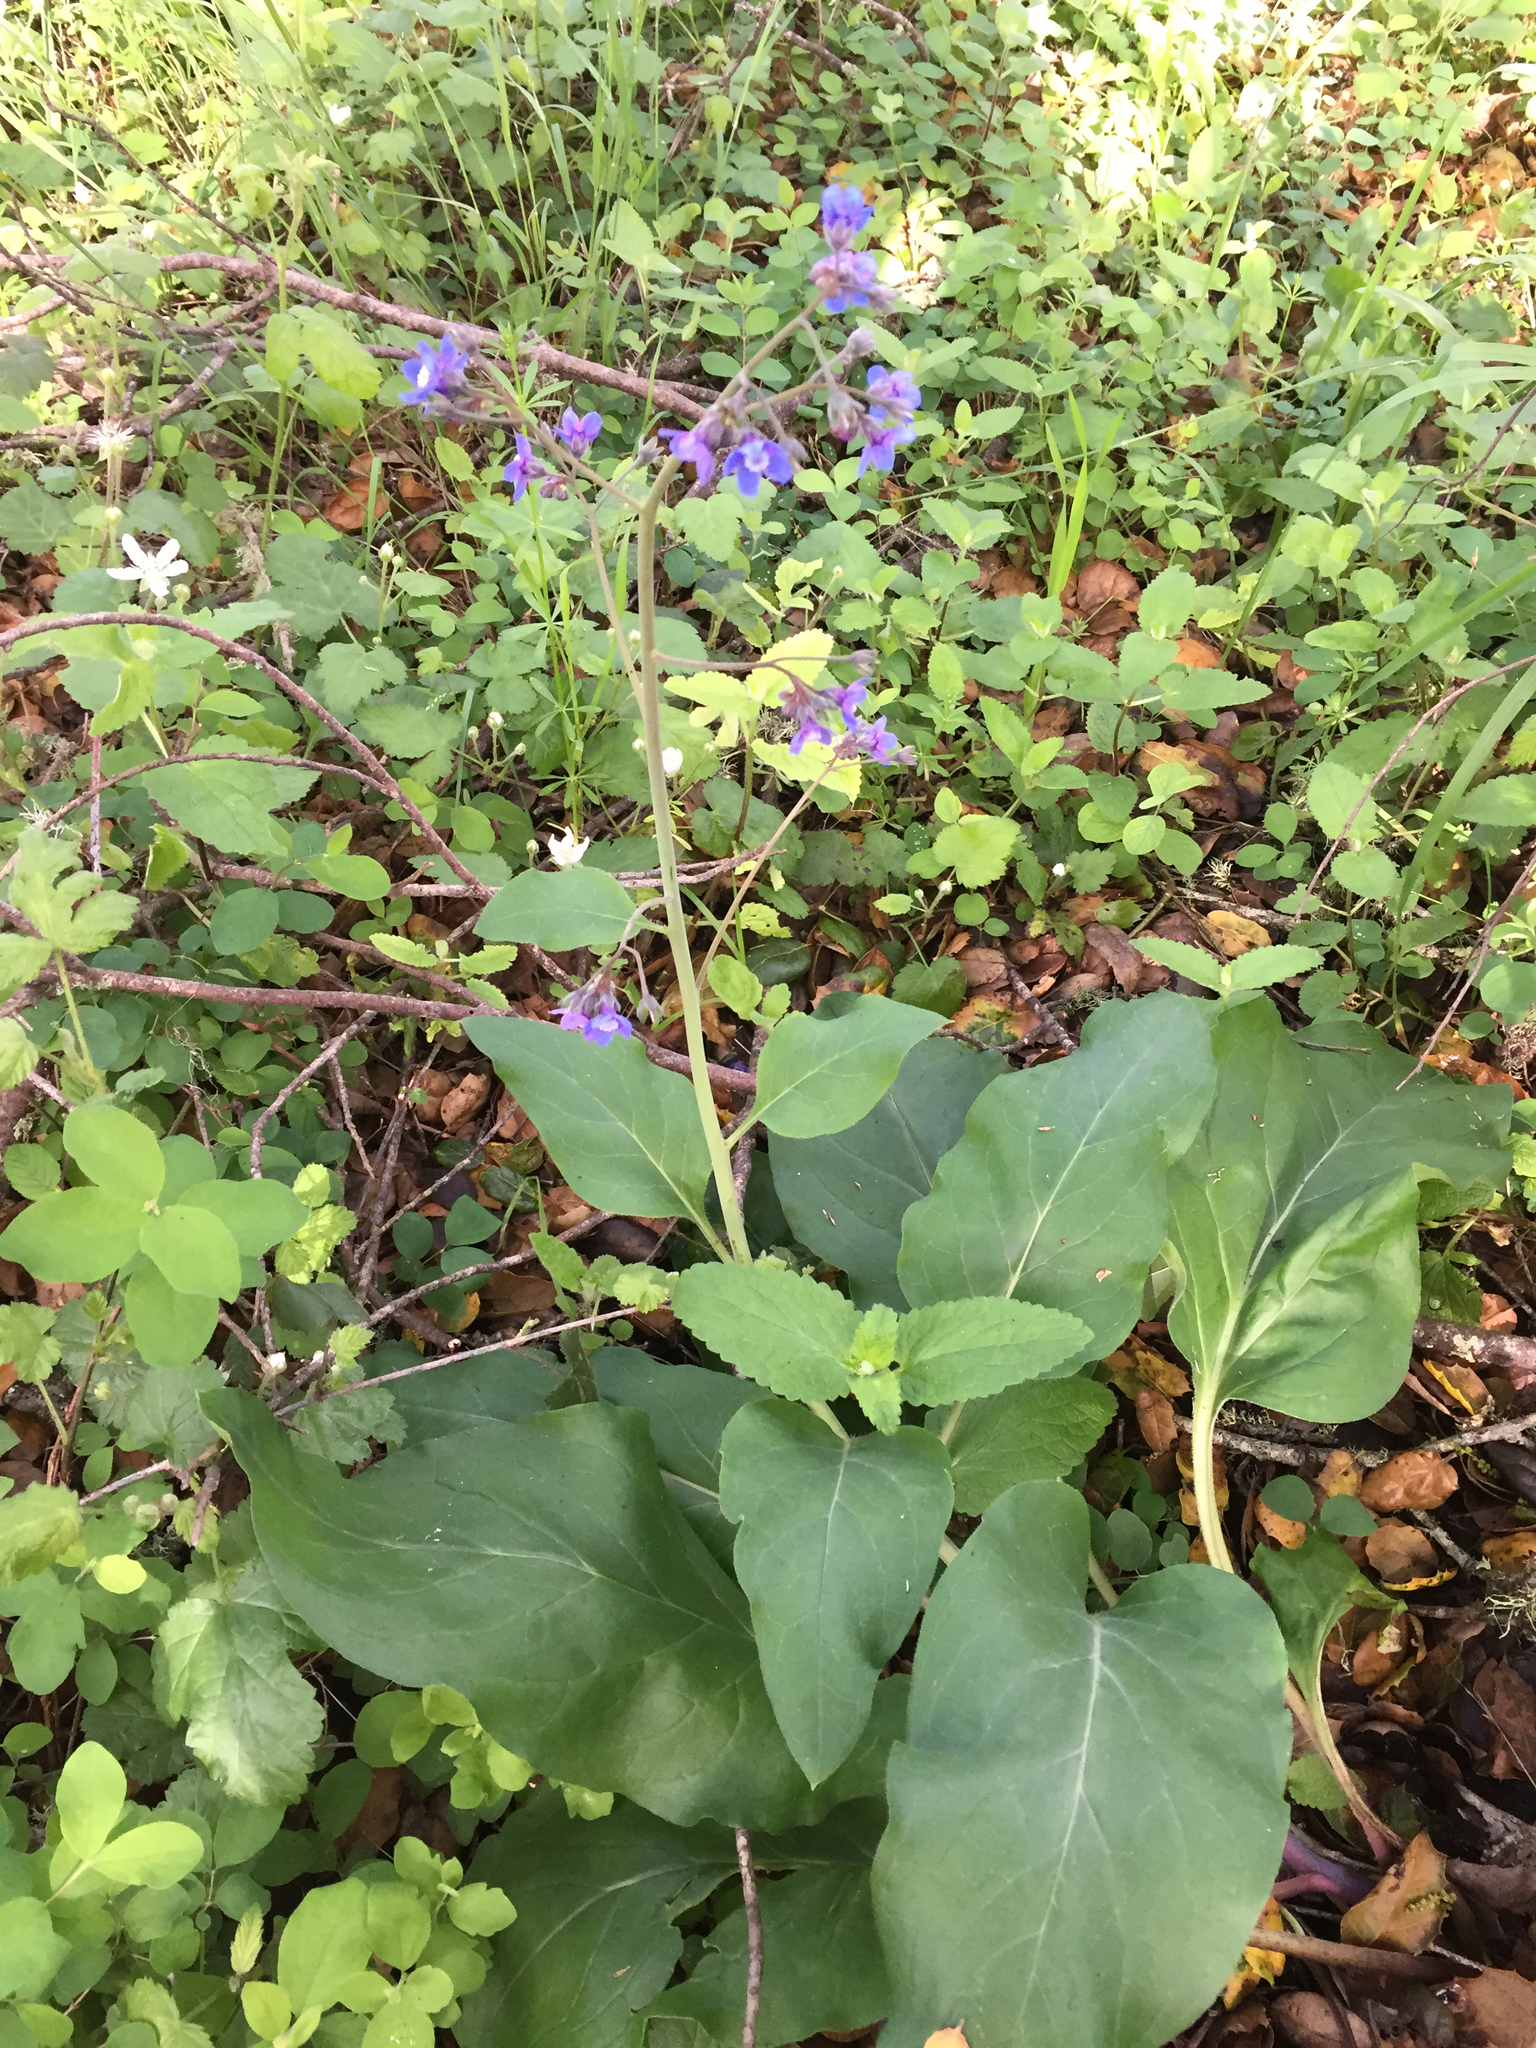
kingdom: Plantae
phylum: Tracheophyta
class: Magnoliopsida
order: Boraginales
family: Boraginaceae
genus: Adelinia
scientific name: Adelinia grande
